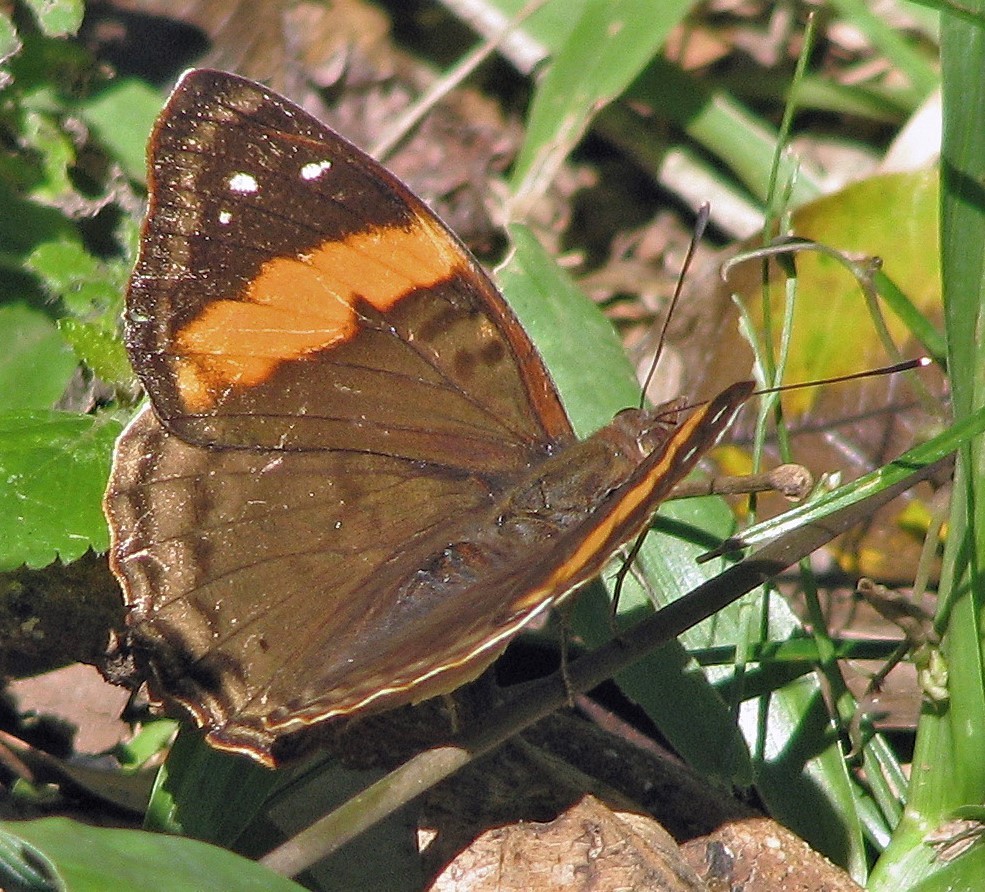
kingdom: Animalia
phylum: Arthropoda
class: Insecta
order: Lepidoptera
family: Nymphalidae
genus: Doxocopa
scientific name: Doxocopa agathina
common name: Agathina emperor
